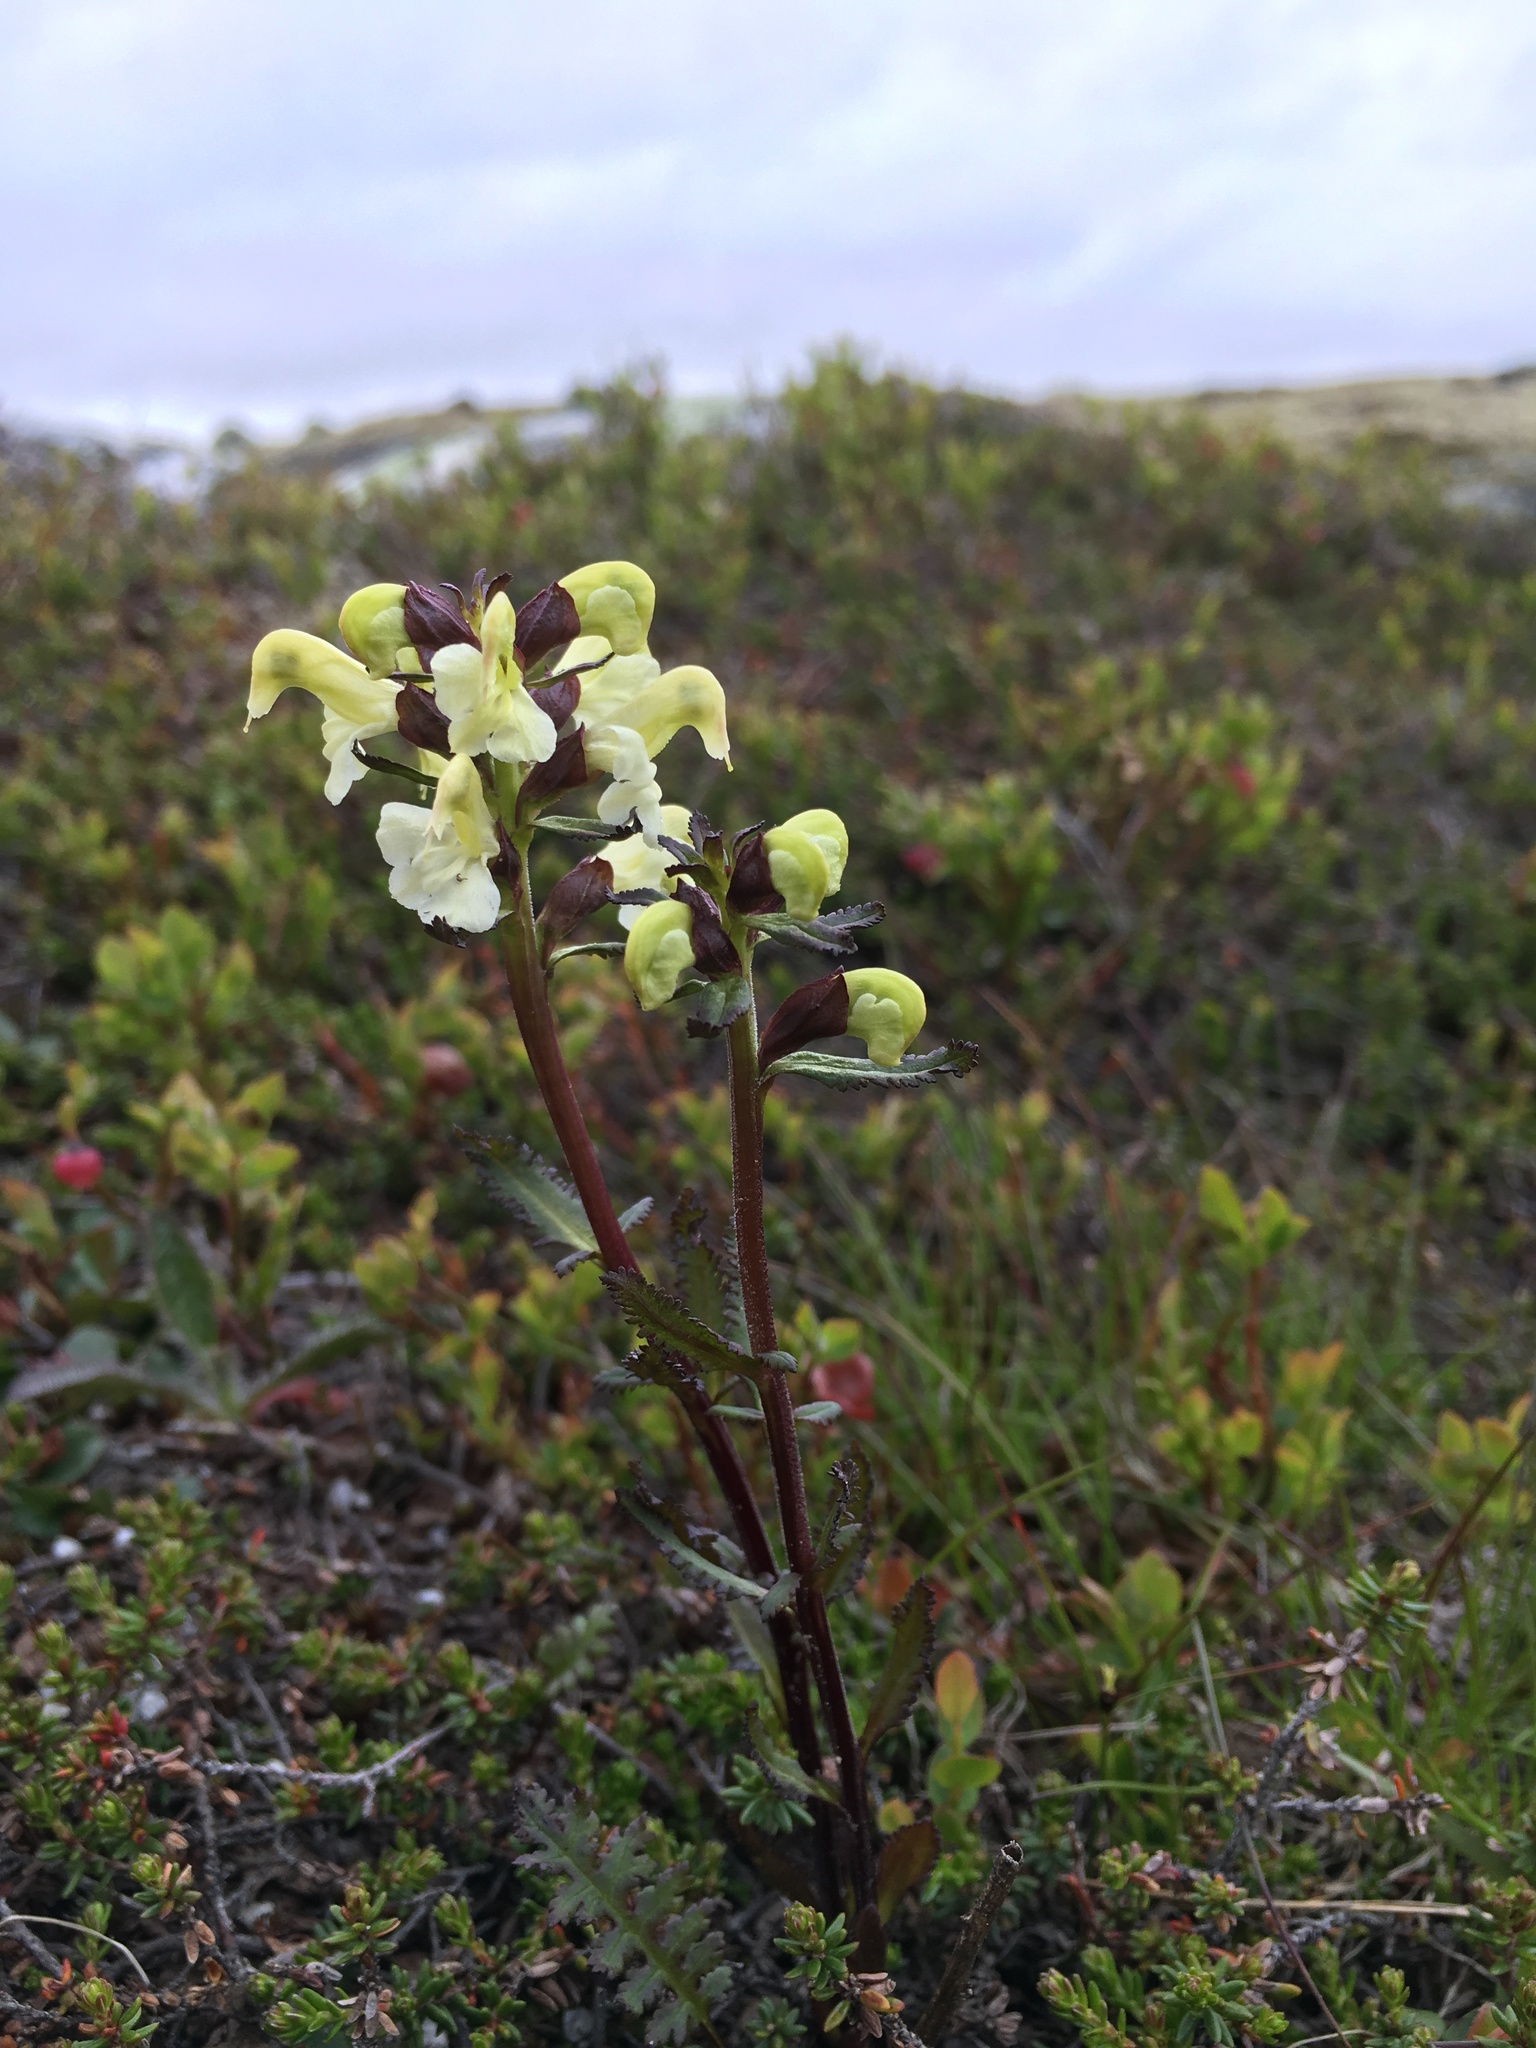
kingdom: Plantae
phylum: Tracheophyta
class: Magnoliopsida
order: Lamiales
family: Orobanchaceae
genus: Pedicularis
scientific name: Pedicularis lapponica
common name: Lapland lousewort
